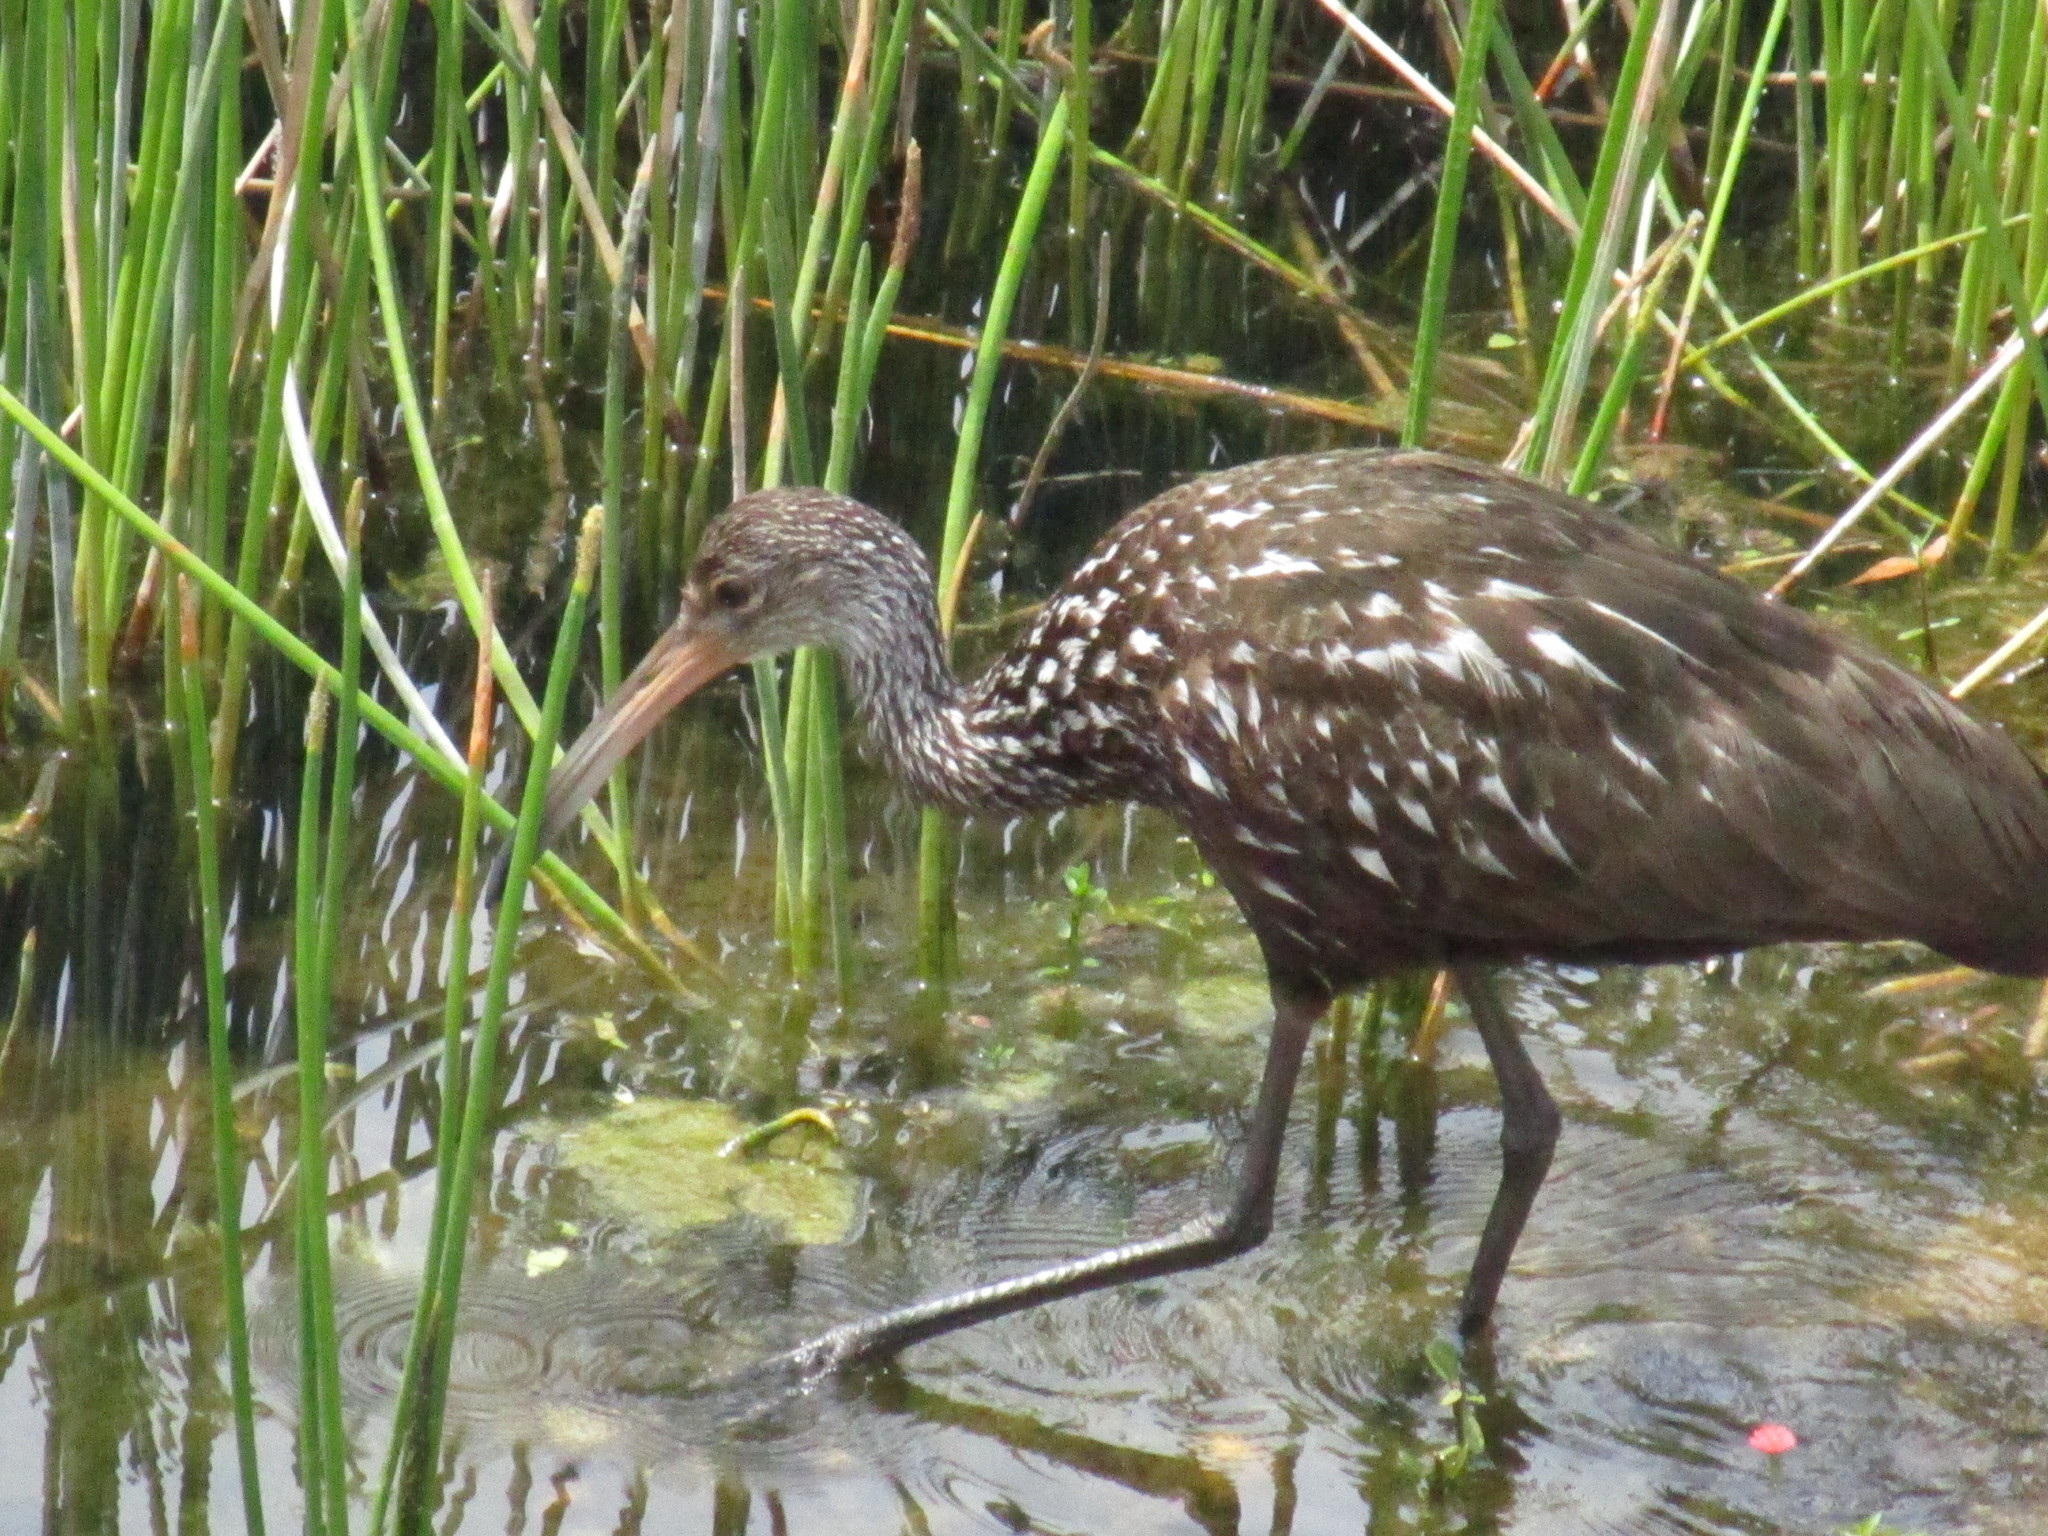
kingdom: Animalia
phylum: Chordata
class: Aves
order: Gruiformes
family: Aramidae
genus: Aramus
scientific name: Aramus guarauna
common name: Limpkin
